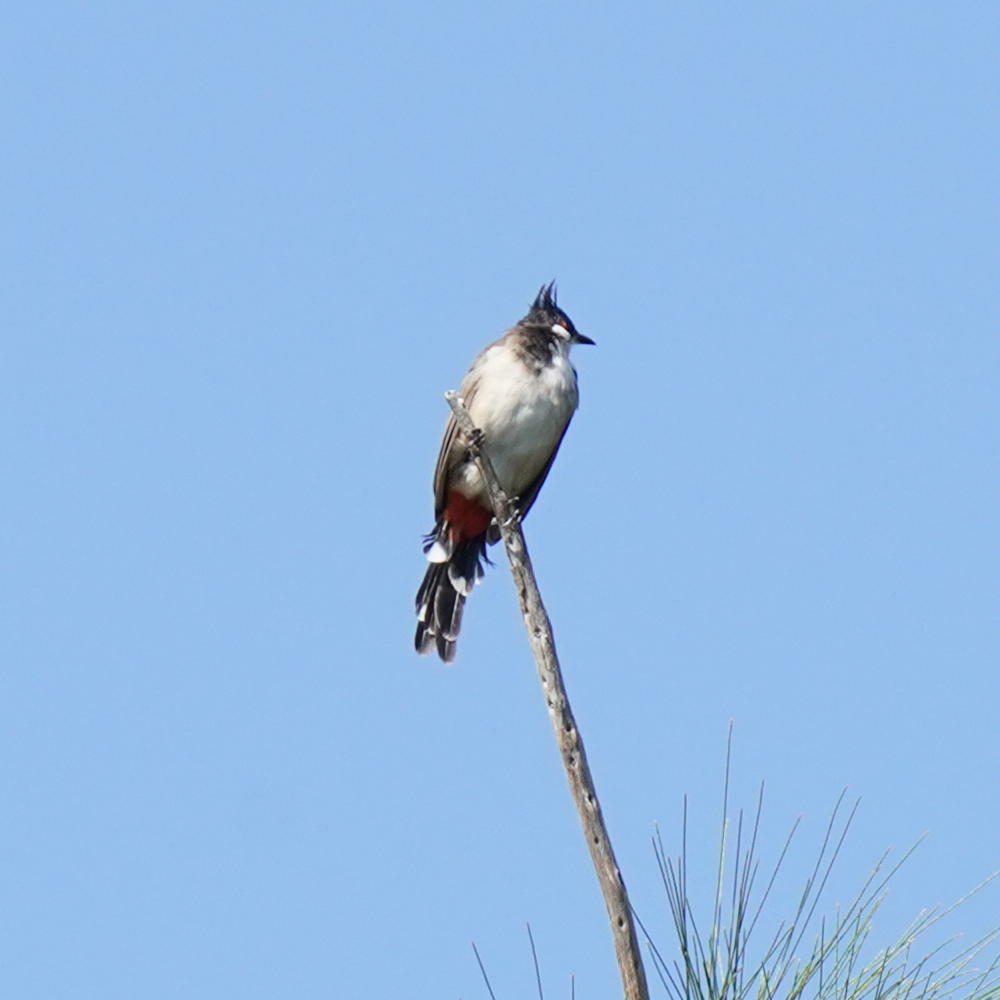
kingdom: Animalia
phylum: Chordata
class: Aves
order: Passeriformes
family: Pycnonotidae
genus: Pycnonotus
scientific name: Pycnonotus jocosus
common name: Red-whiskered bulbul
